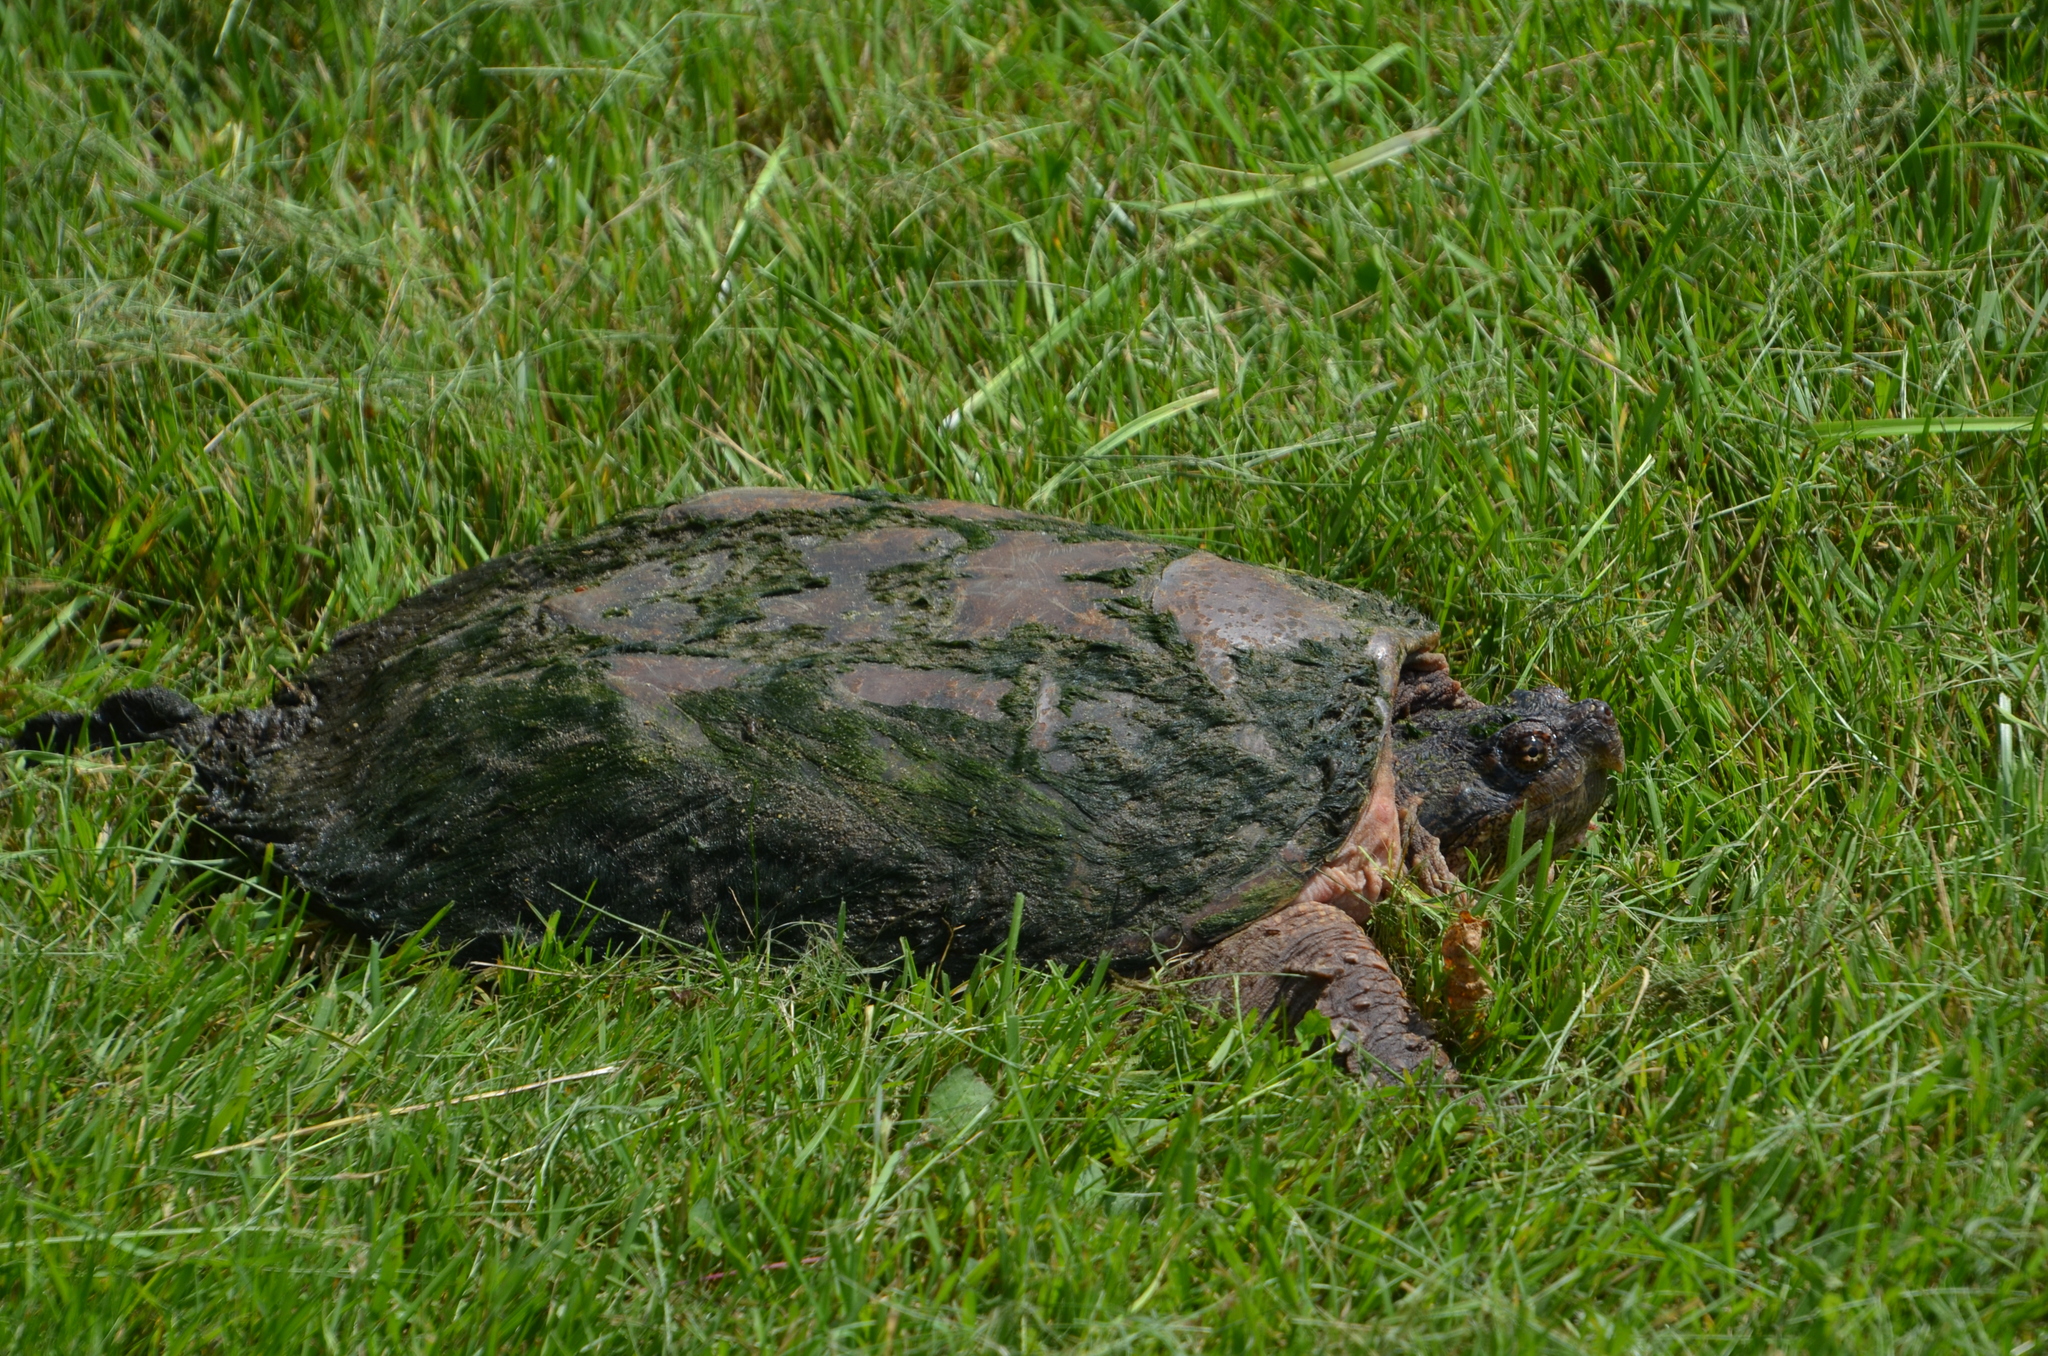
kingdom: Animalia
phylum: Chordata
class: Testudines
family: Chelydridae
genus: Chelydra
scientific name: Chelydra serpentina
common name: Common snapping turtle
